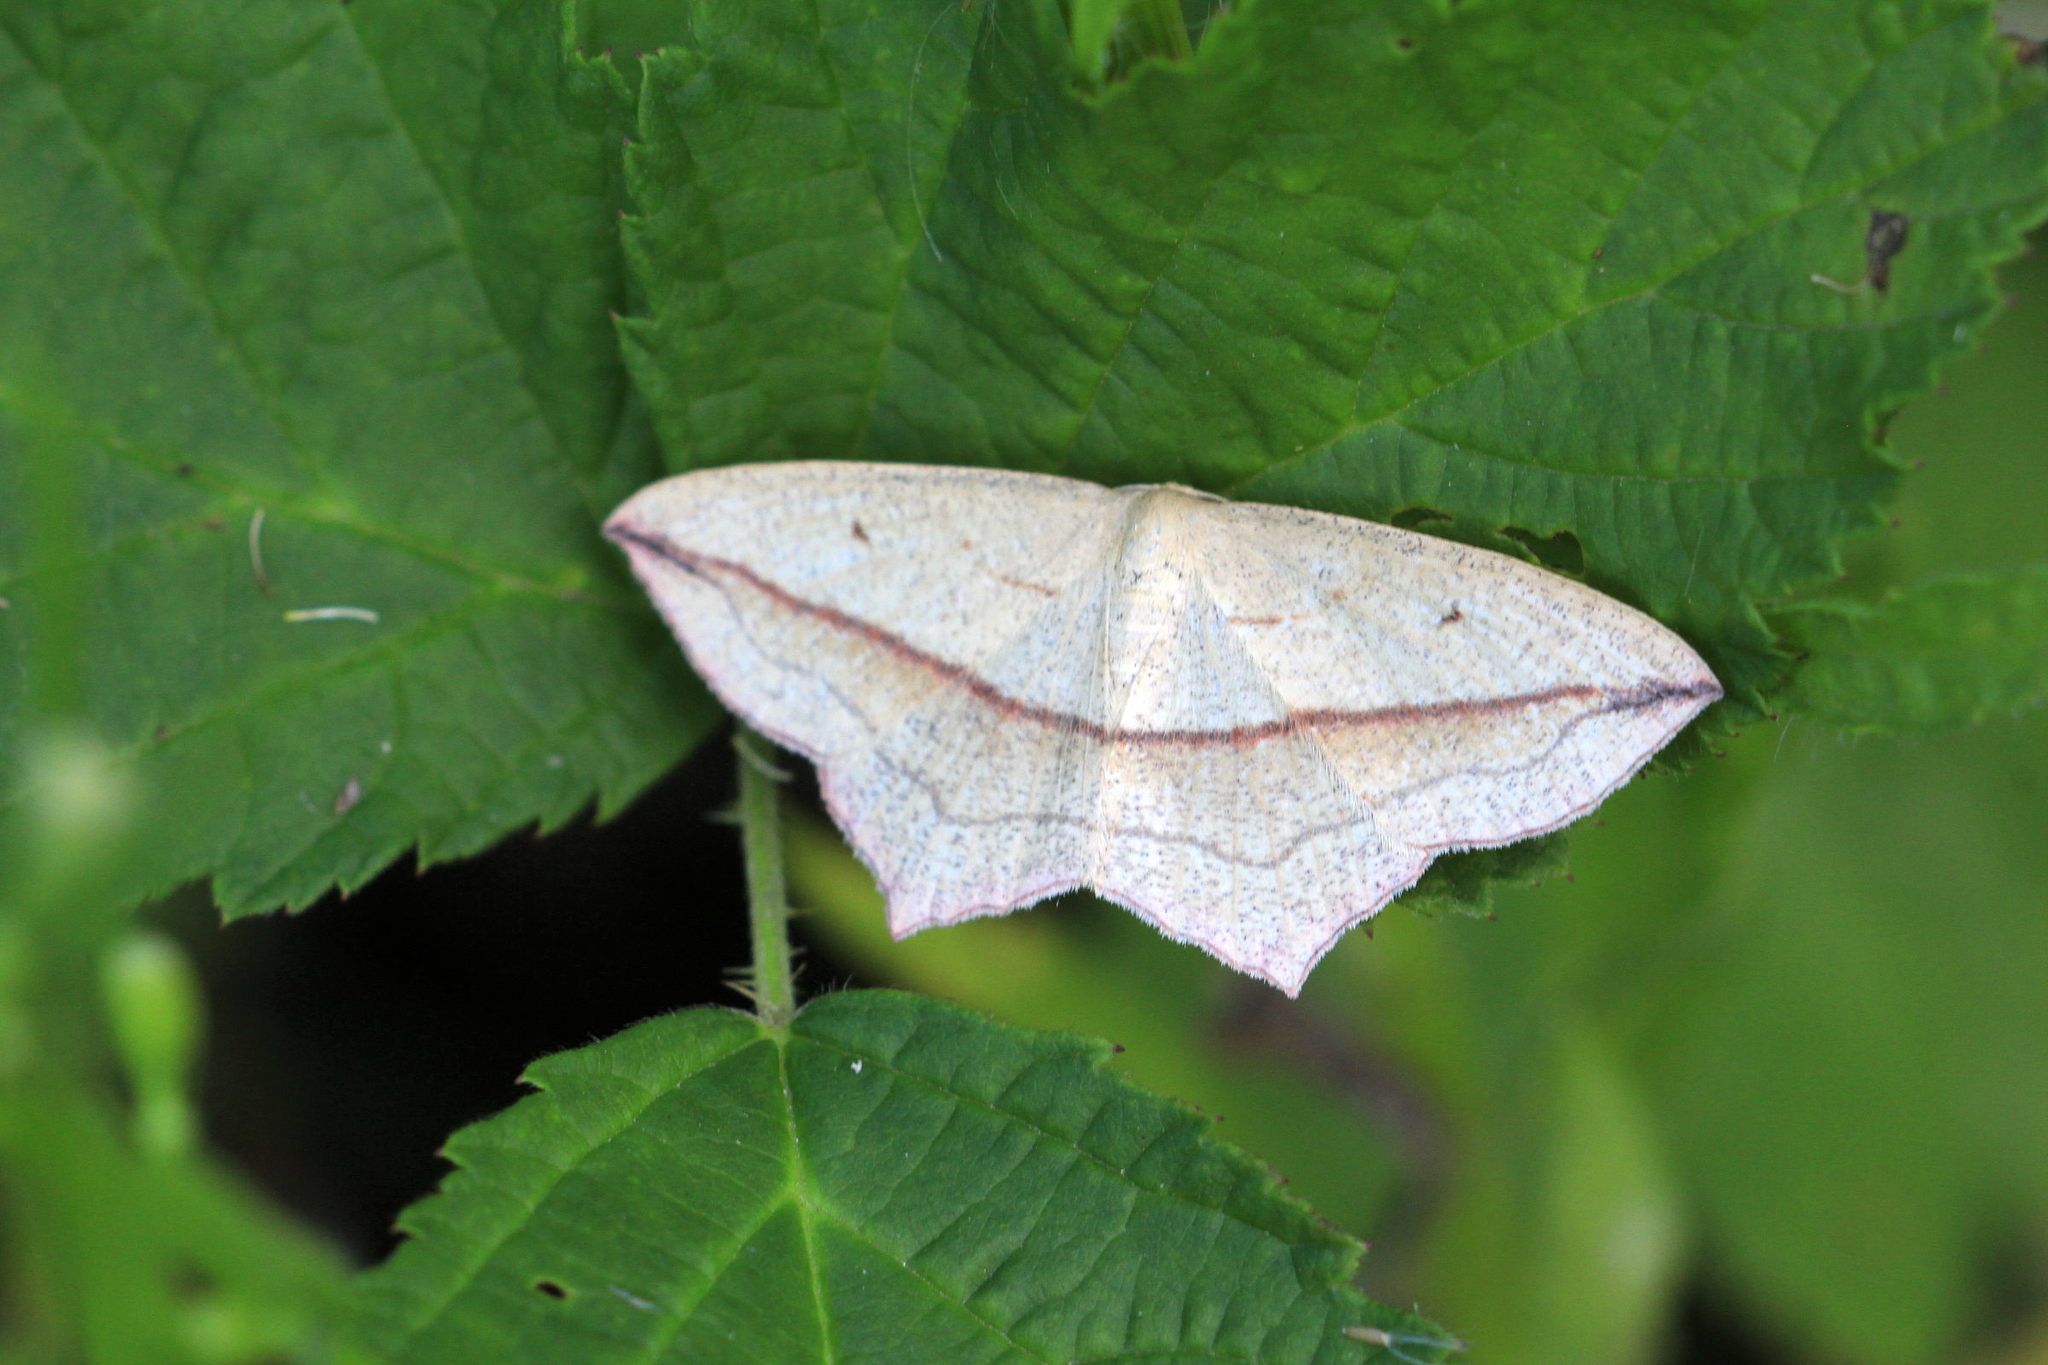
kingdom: Animalia
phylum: Arthropoda
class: Insecta
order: Lepidoptera
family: Geometridae
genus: Timandra
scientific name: Timandra comae
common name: Blood-vein
